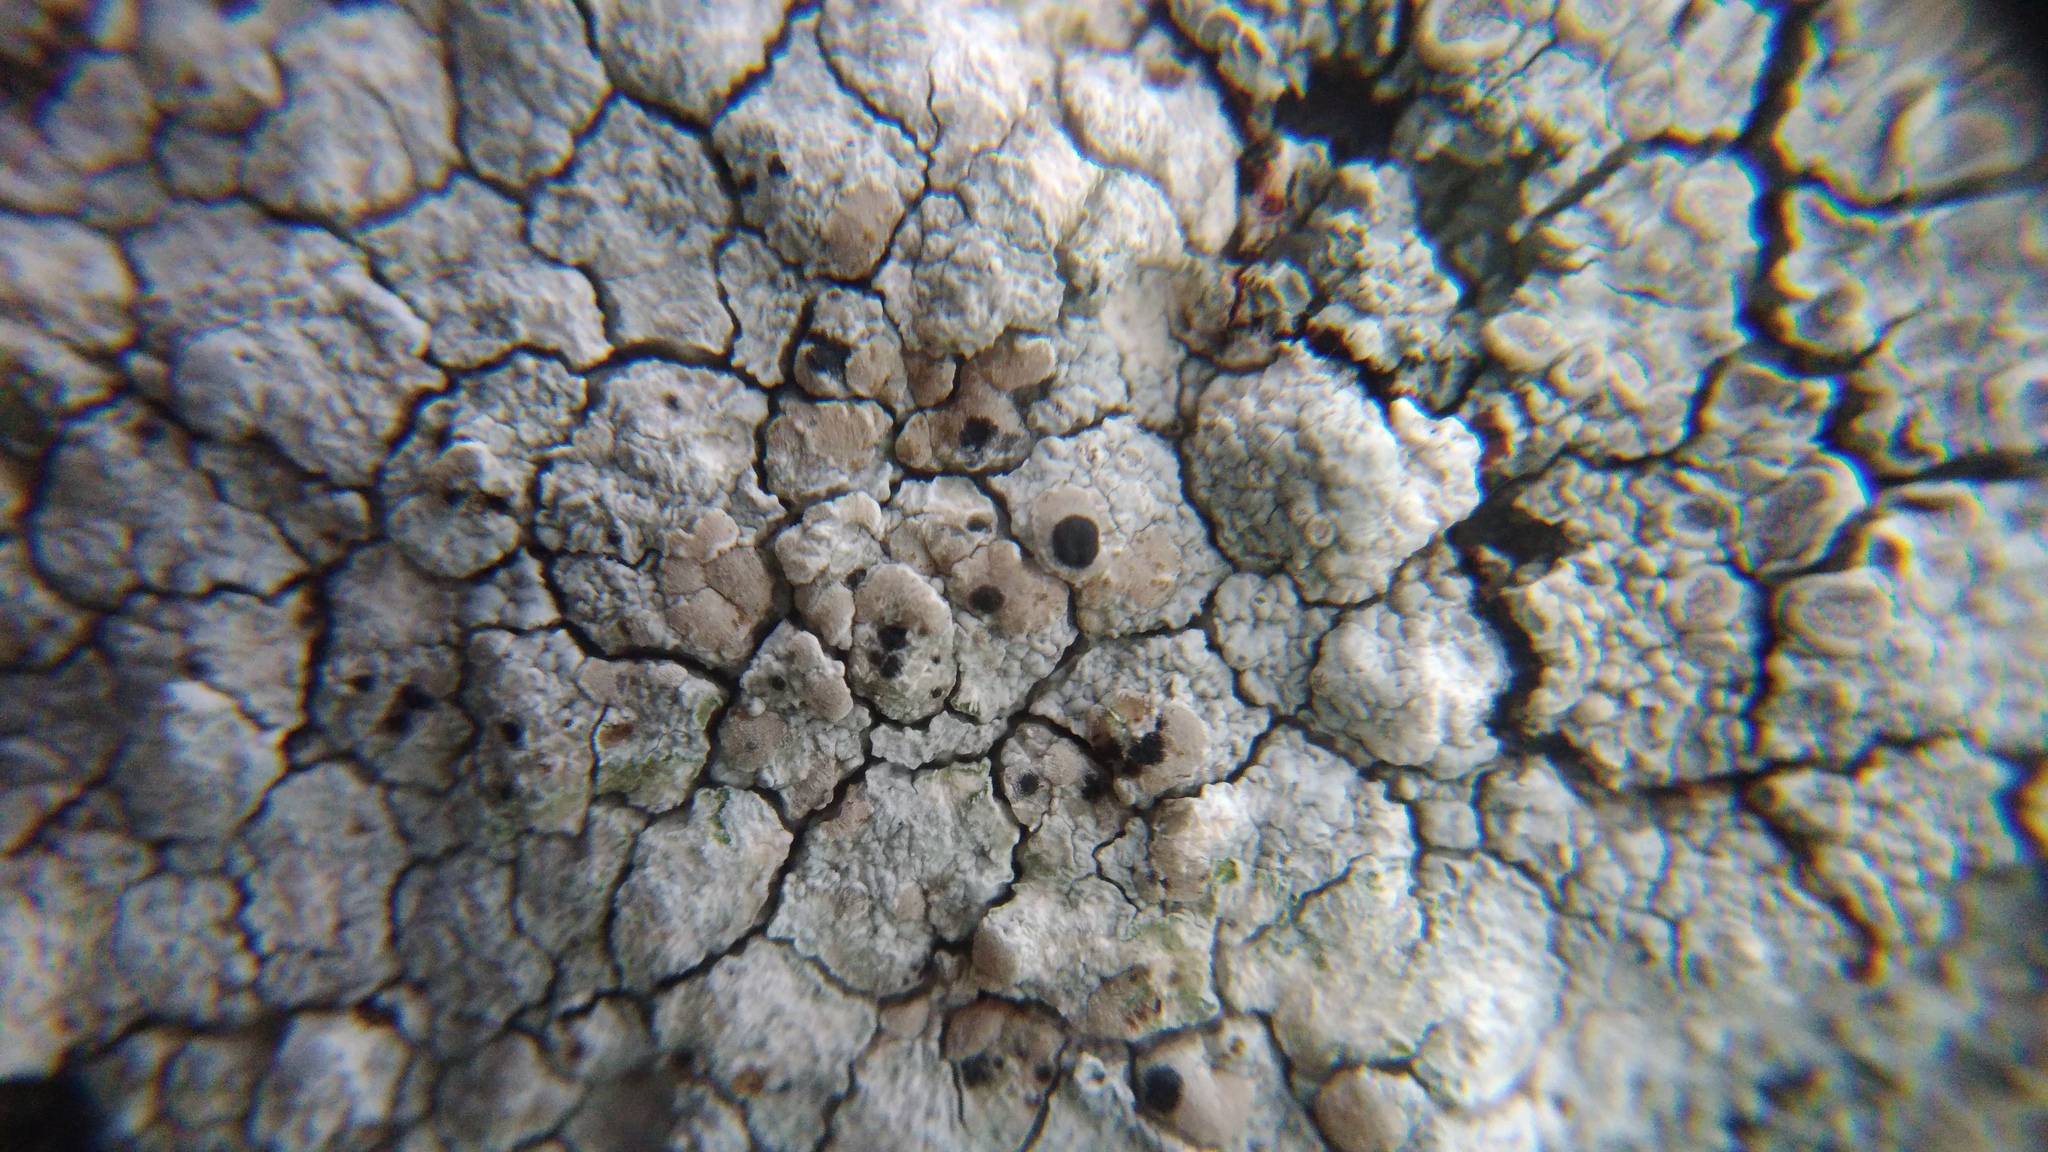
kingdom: Fungi
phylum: Ascomycota
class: Arthoniomycetes
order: Arthoniales
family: Arthoniaceae
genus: Arthonia
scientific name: Arthonia varians
